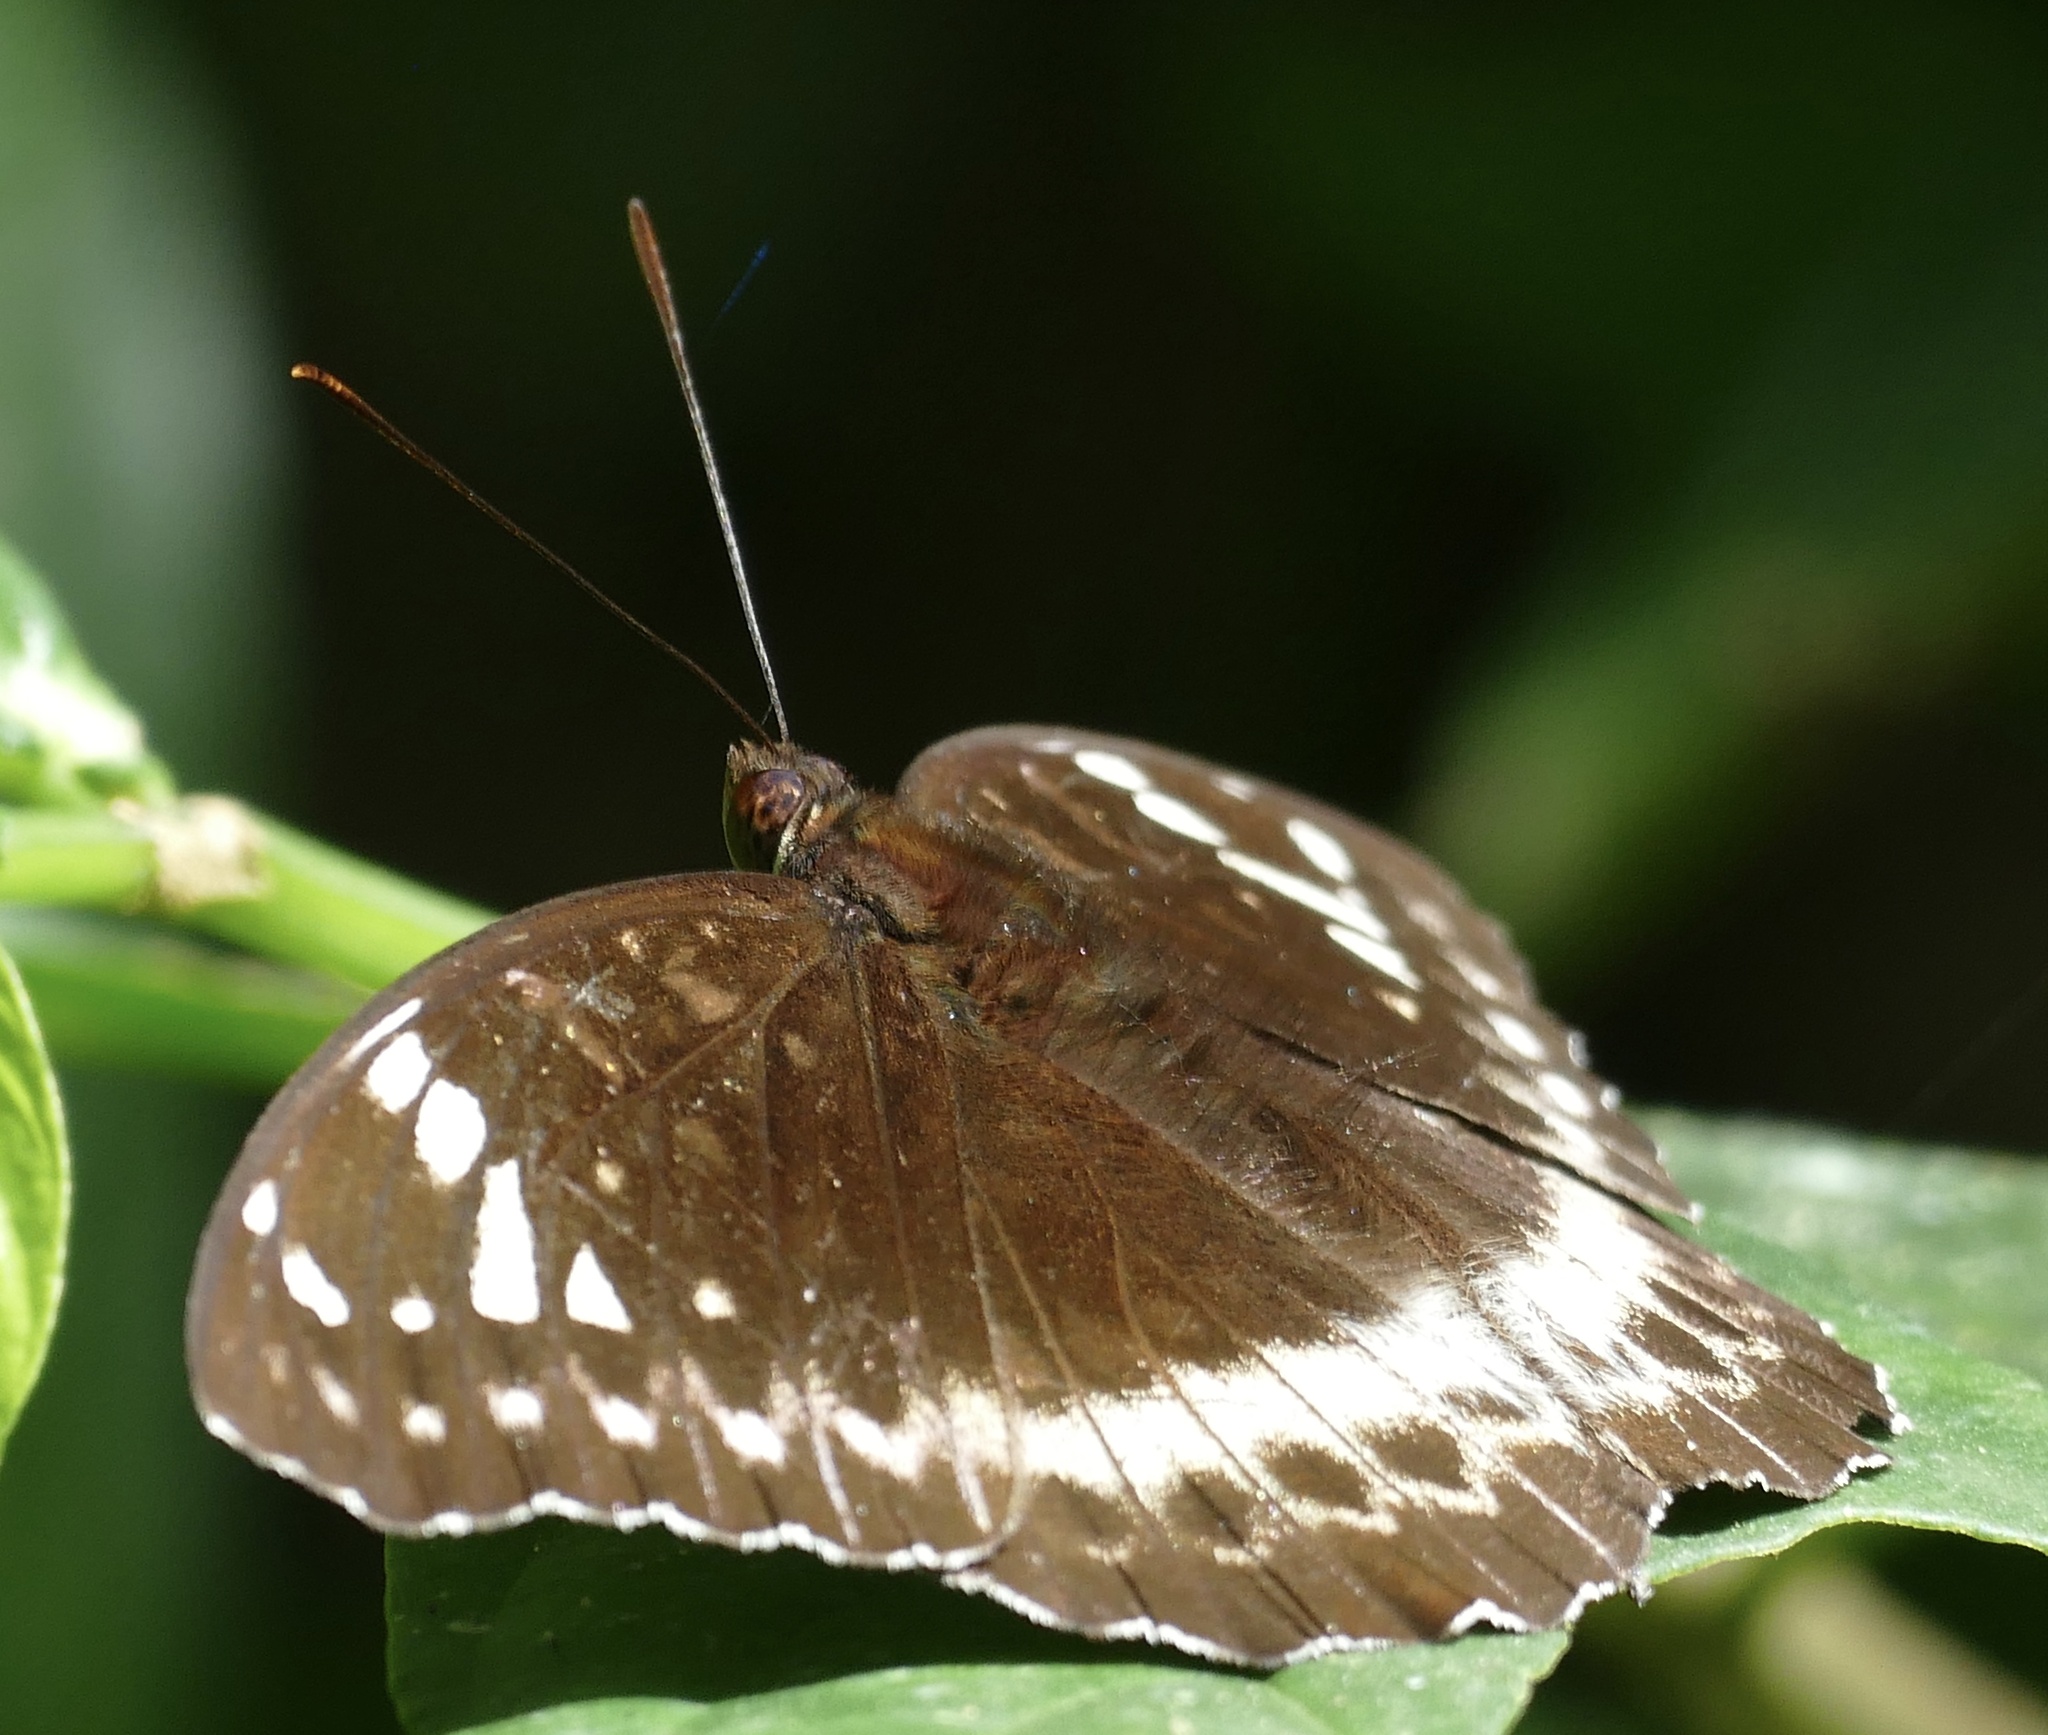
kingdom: Animalia
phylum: Arthropoda
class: Insecta
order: Lepidoptera
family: Nymphalidae
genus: Lexias
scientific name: Lexias aeetes
